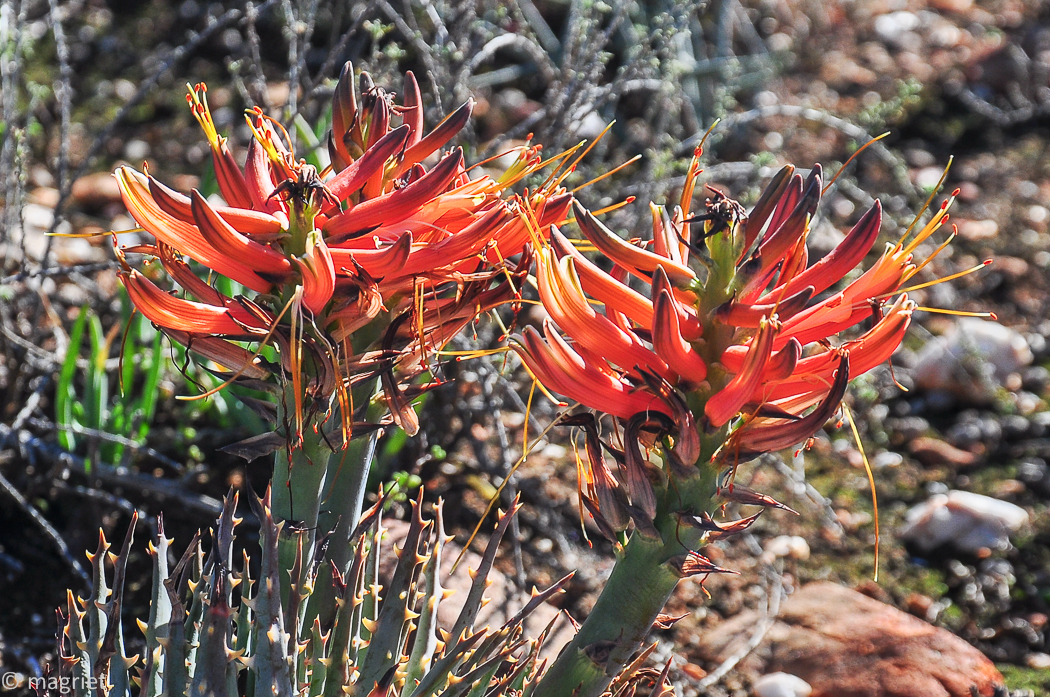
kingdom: Plantae
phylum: Tracheophyta
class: Liliopsida
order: Asparagales
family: Asphodelaceae
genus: Aloe
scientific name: Aloe longistyla
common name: Karoo aloe
